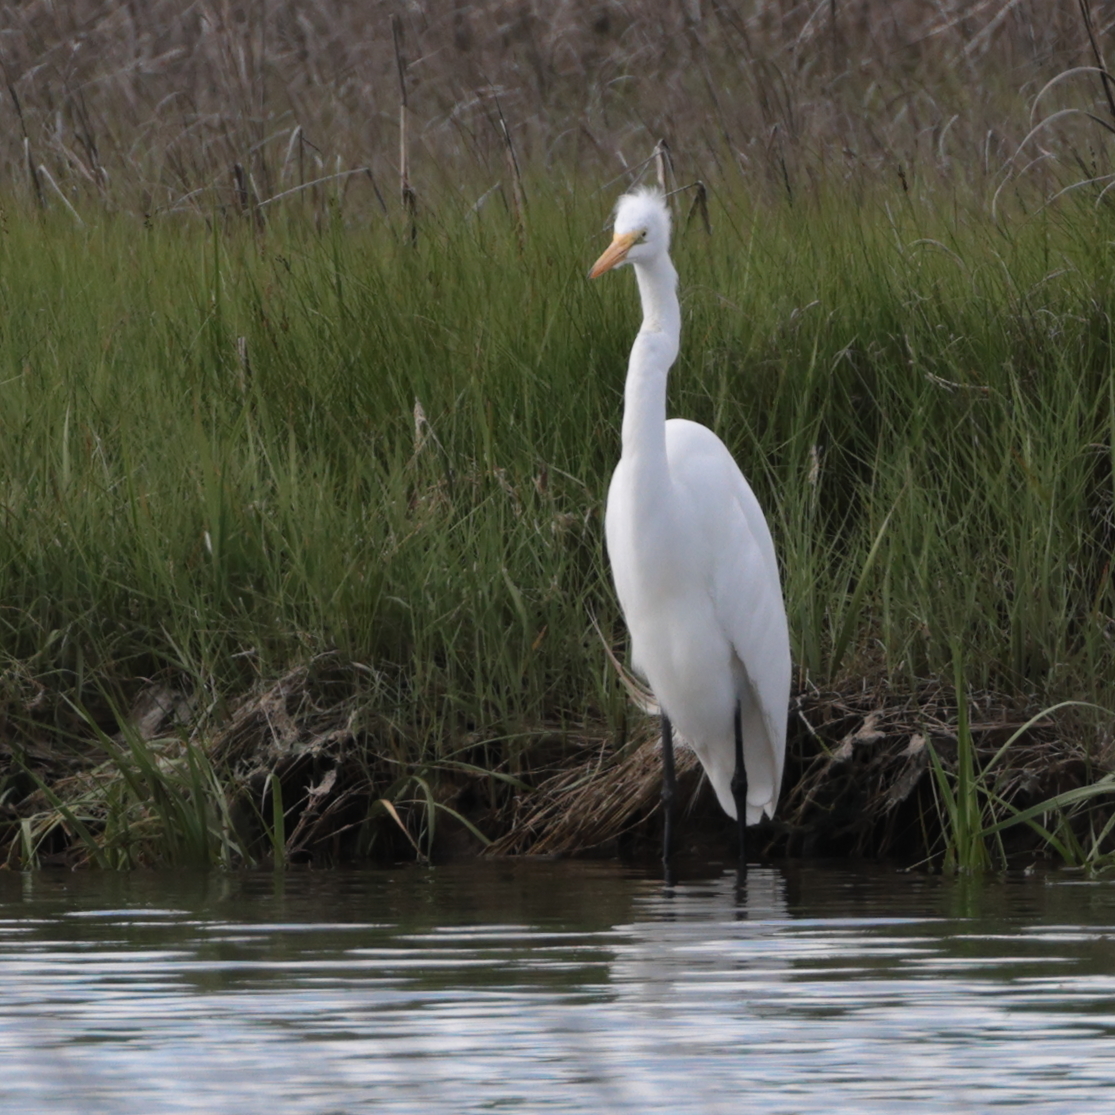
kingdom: Animalia
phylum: Chordata
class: Aves
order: Pelecaniformes
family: Ardeidae
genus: Ardea
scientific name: Ardea alba
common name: Great egret
